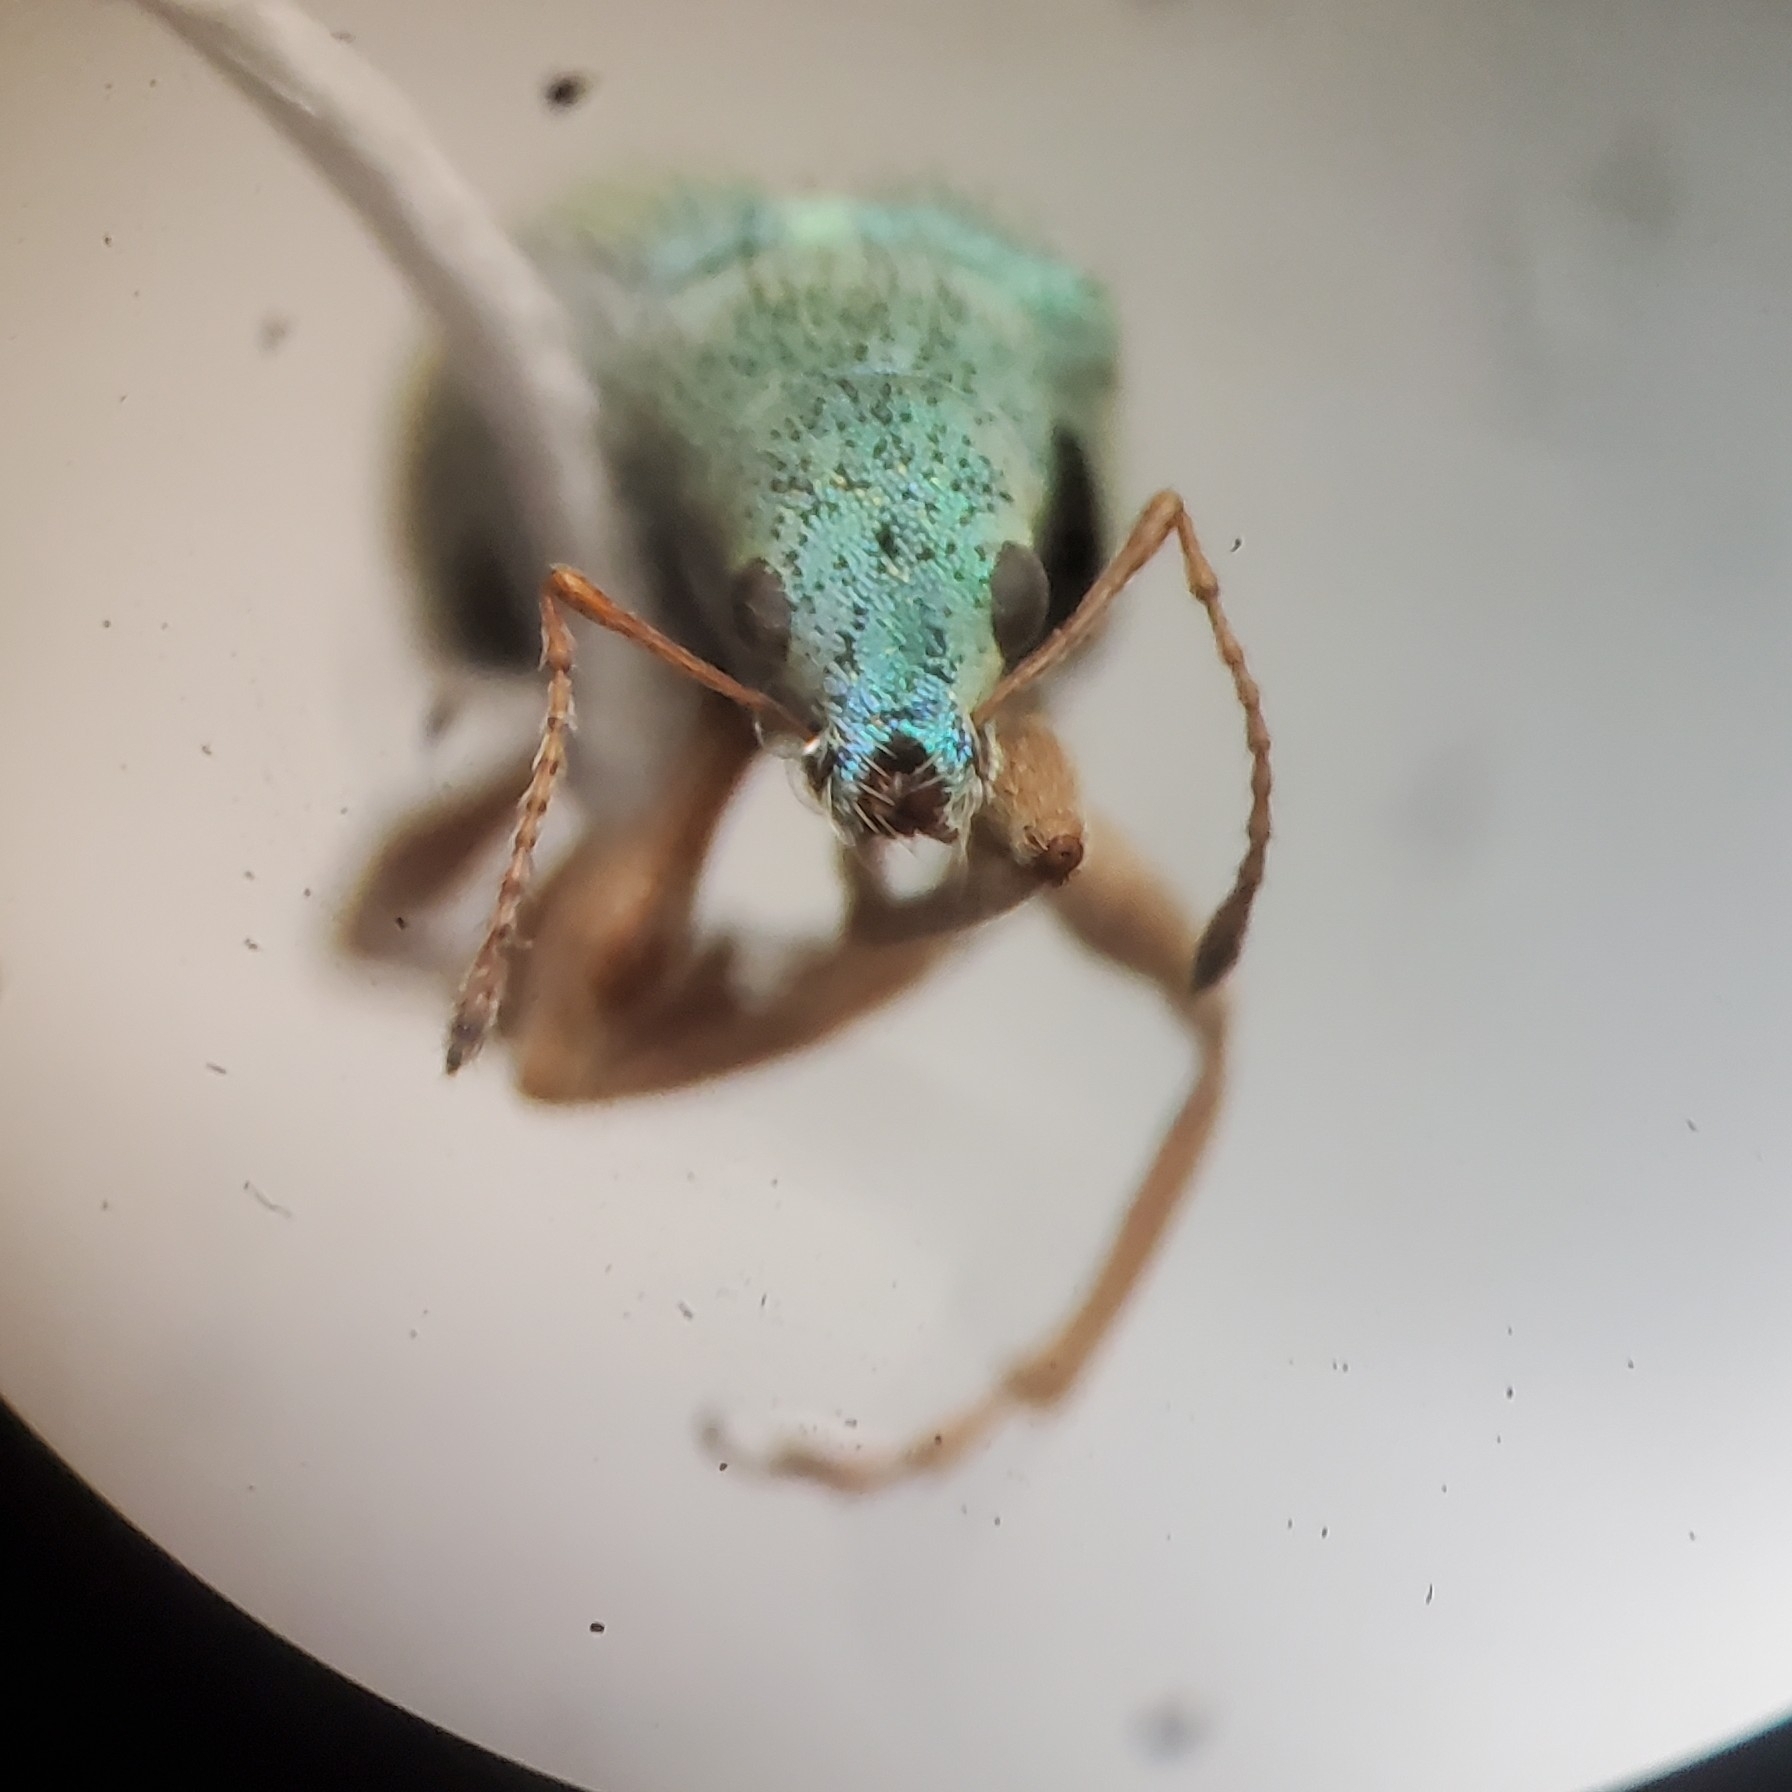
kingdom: Animalia
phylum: Arthropoda
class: Insecta
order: Coleoptera
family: Curculionidae
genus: Polydrusus
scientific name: Polydrusus impressifrons
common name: Weevil
